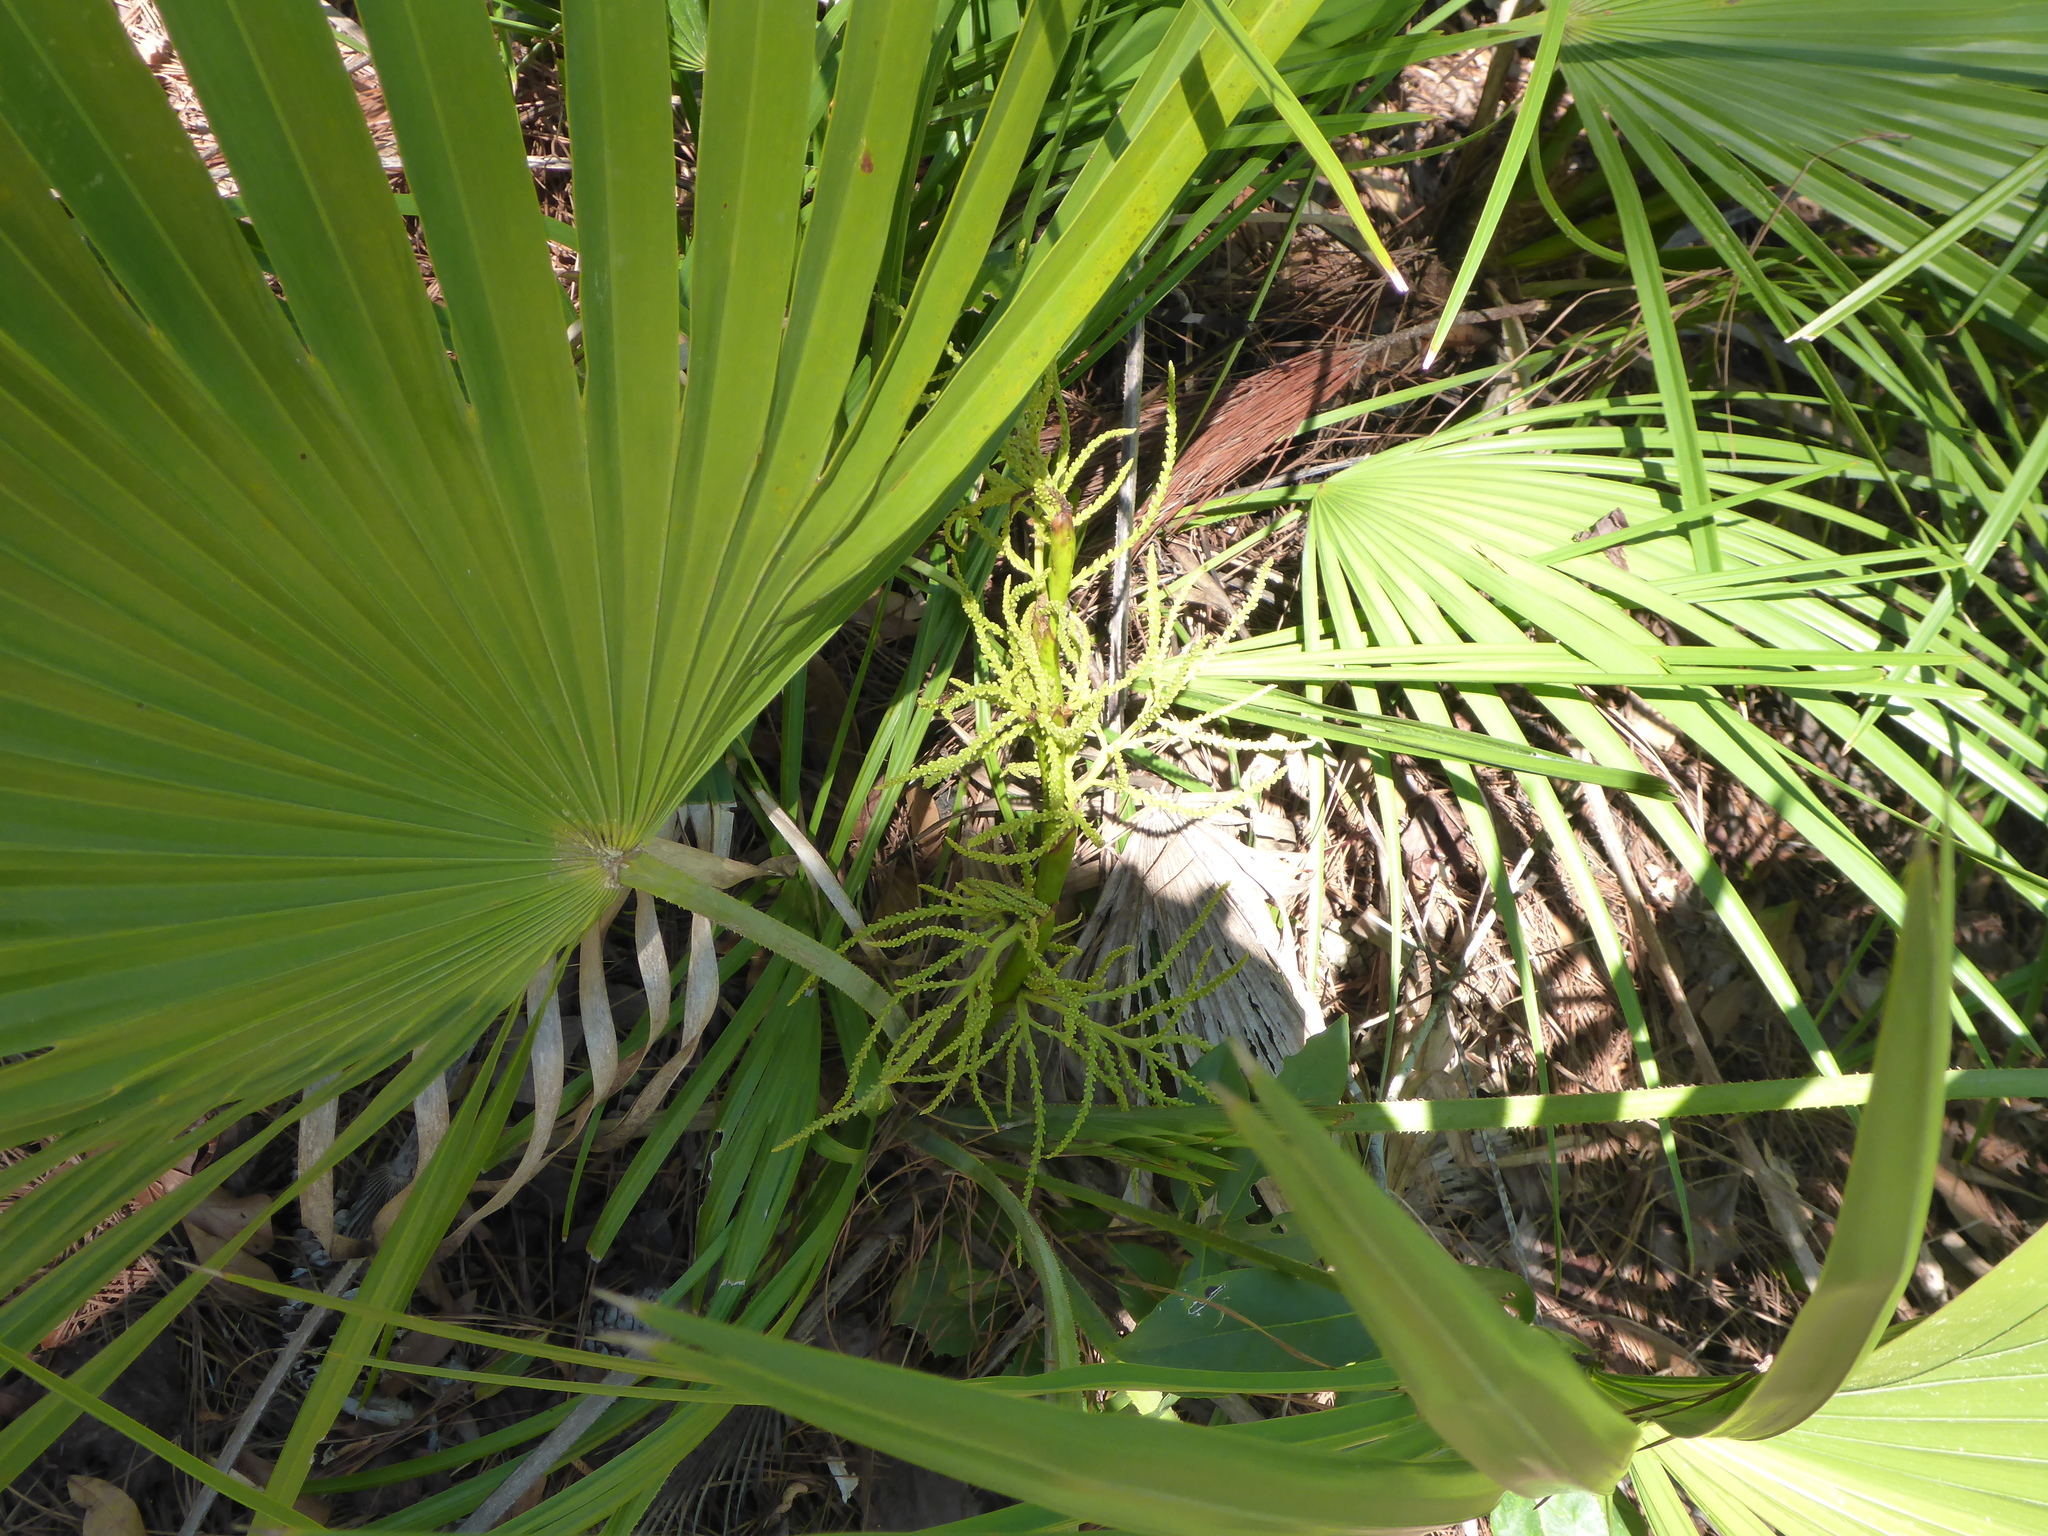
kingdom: Plantae
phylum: Tracheophyta
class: Liliopsida
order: Arecales
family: Arecaceae
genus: Serenoa
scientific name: Serenoa repens
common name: Saw-palmetto
